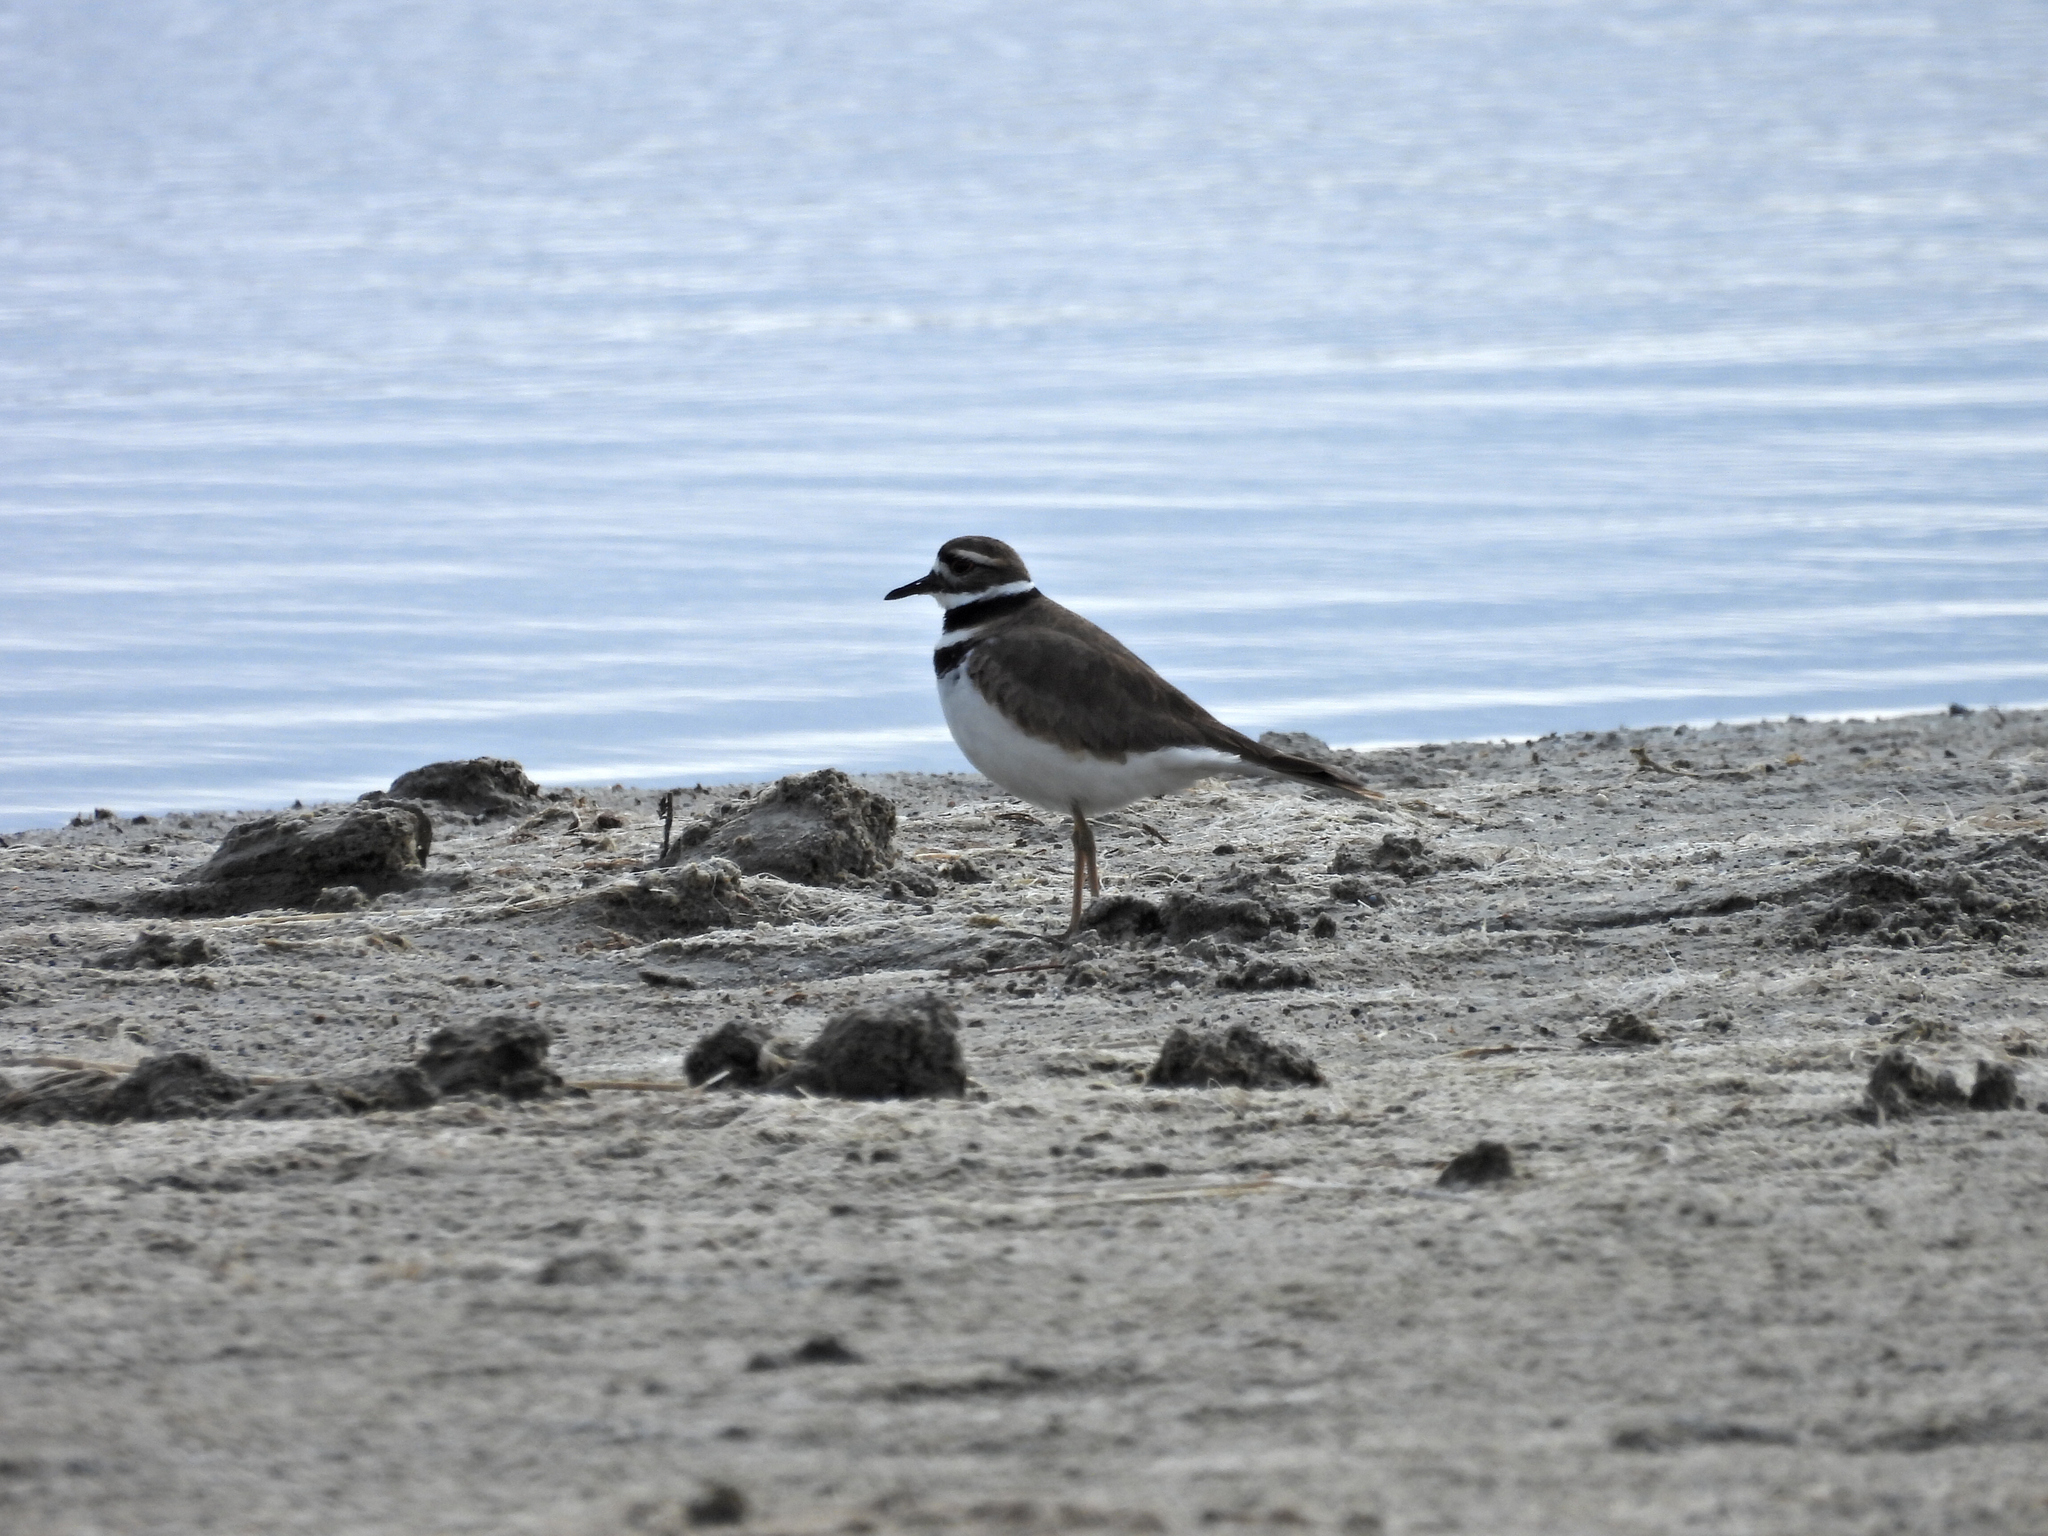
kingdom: Animalia
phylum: Chordata
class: Aves
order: Charadriiformes
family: Charadriidae
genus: Charadrius
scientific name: Charadrius vociferus
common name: Killdeer
